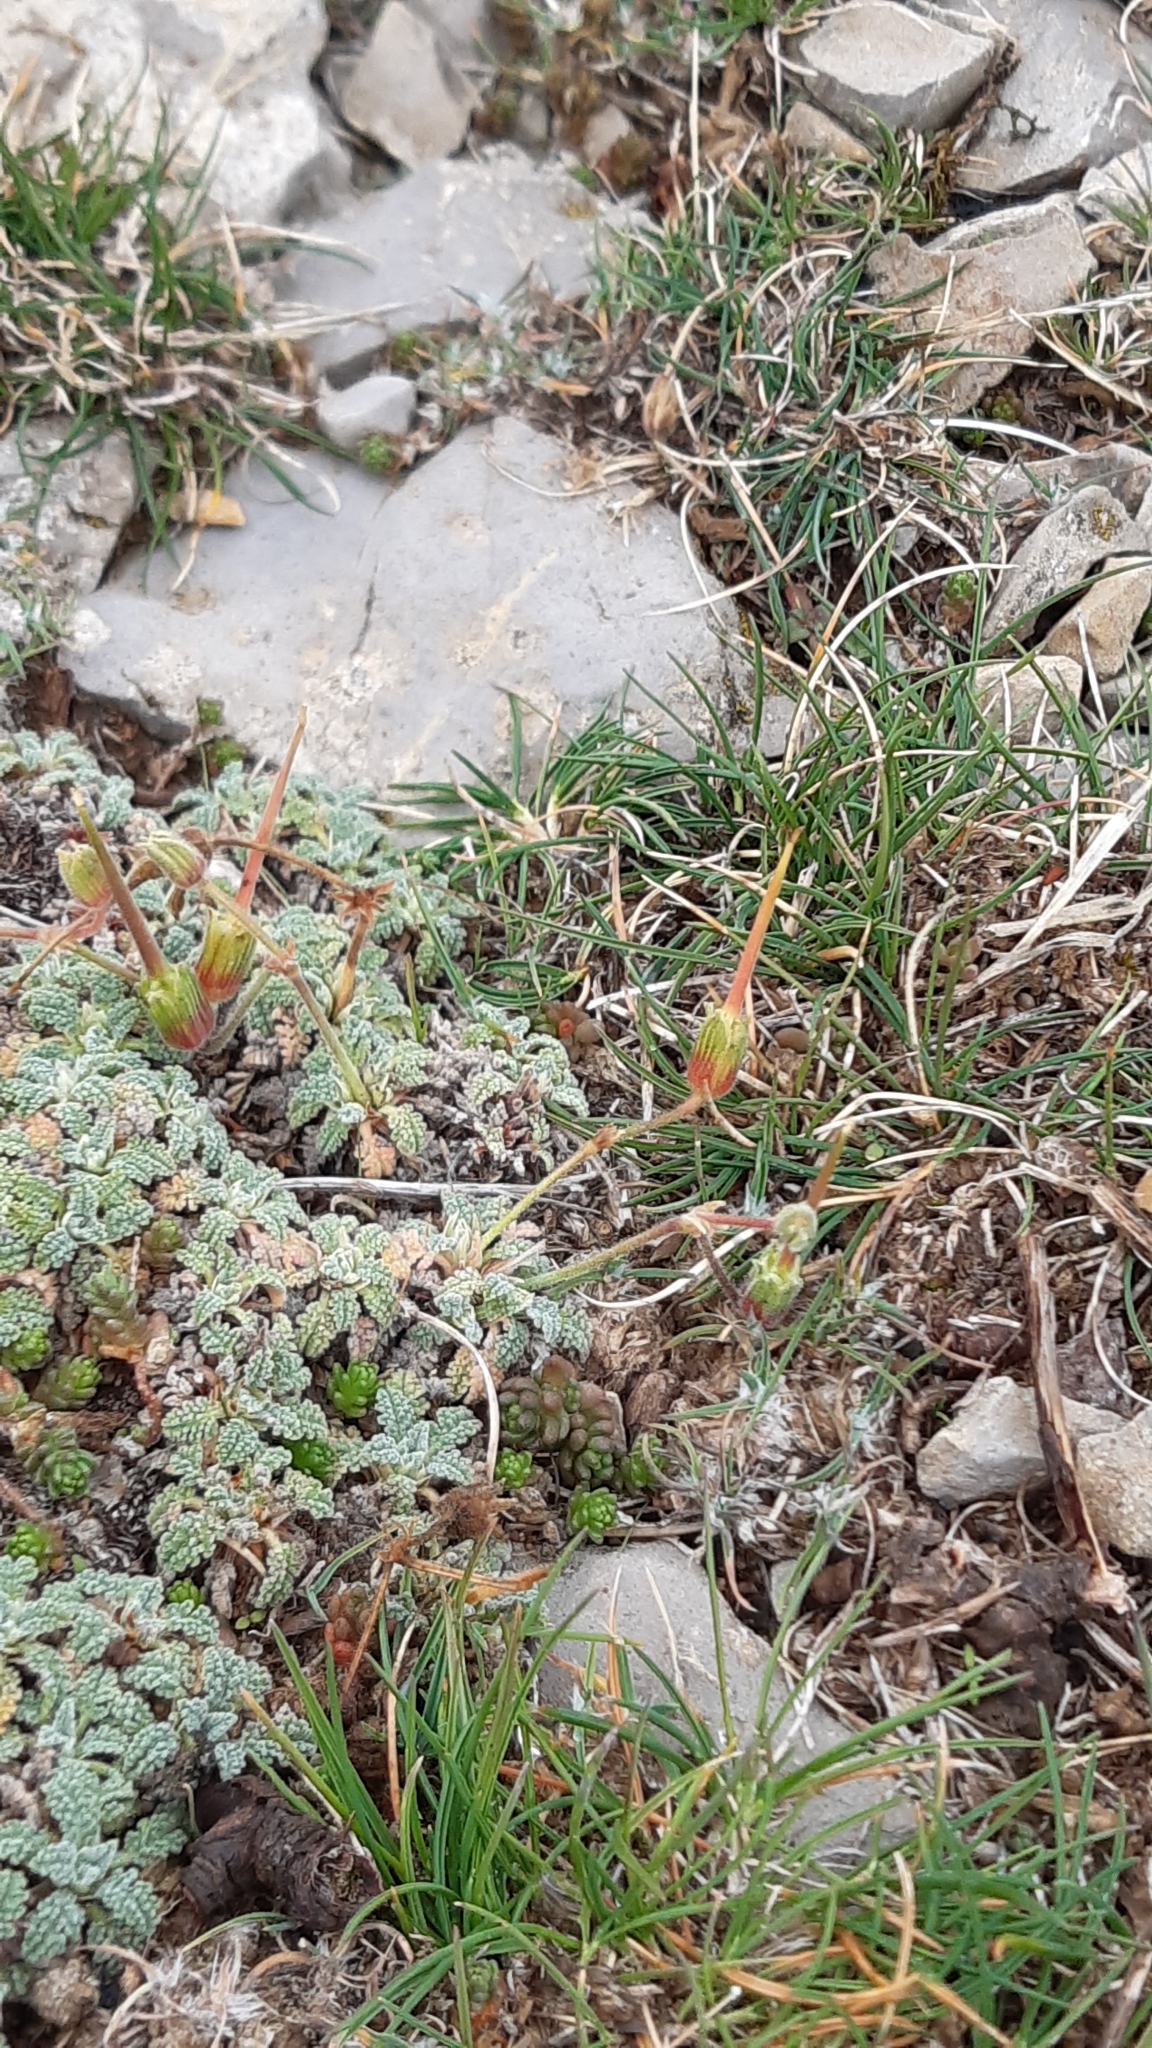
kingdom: Plantae
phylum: Tracheophyta
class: Magnoliopsida
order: Geraniales
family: Geraniaceae
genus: Erodium
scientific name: Erodium celtibericum
